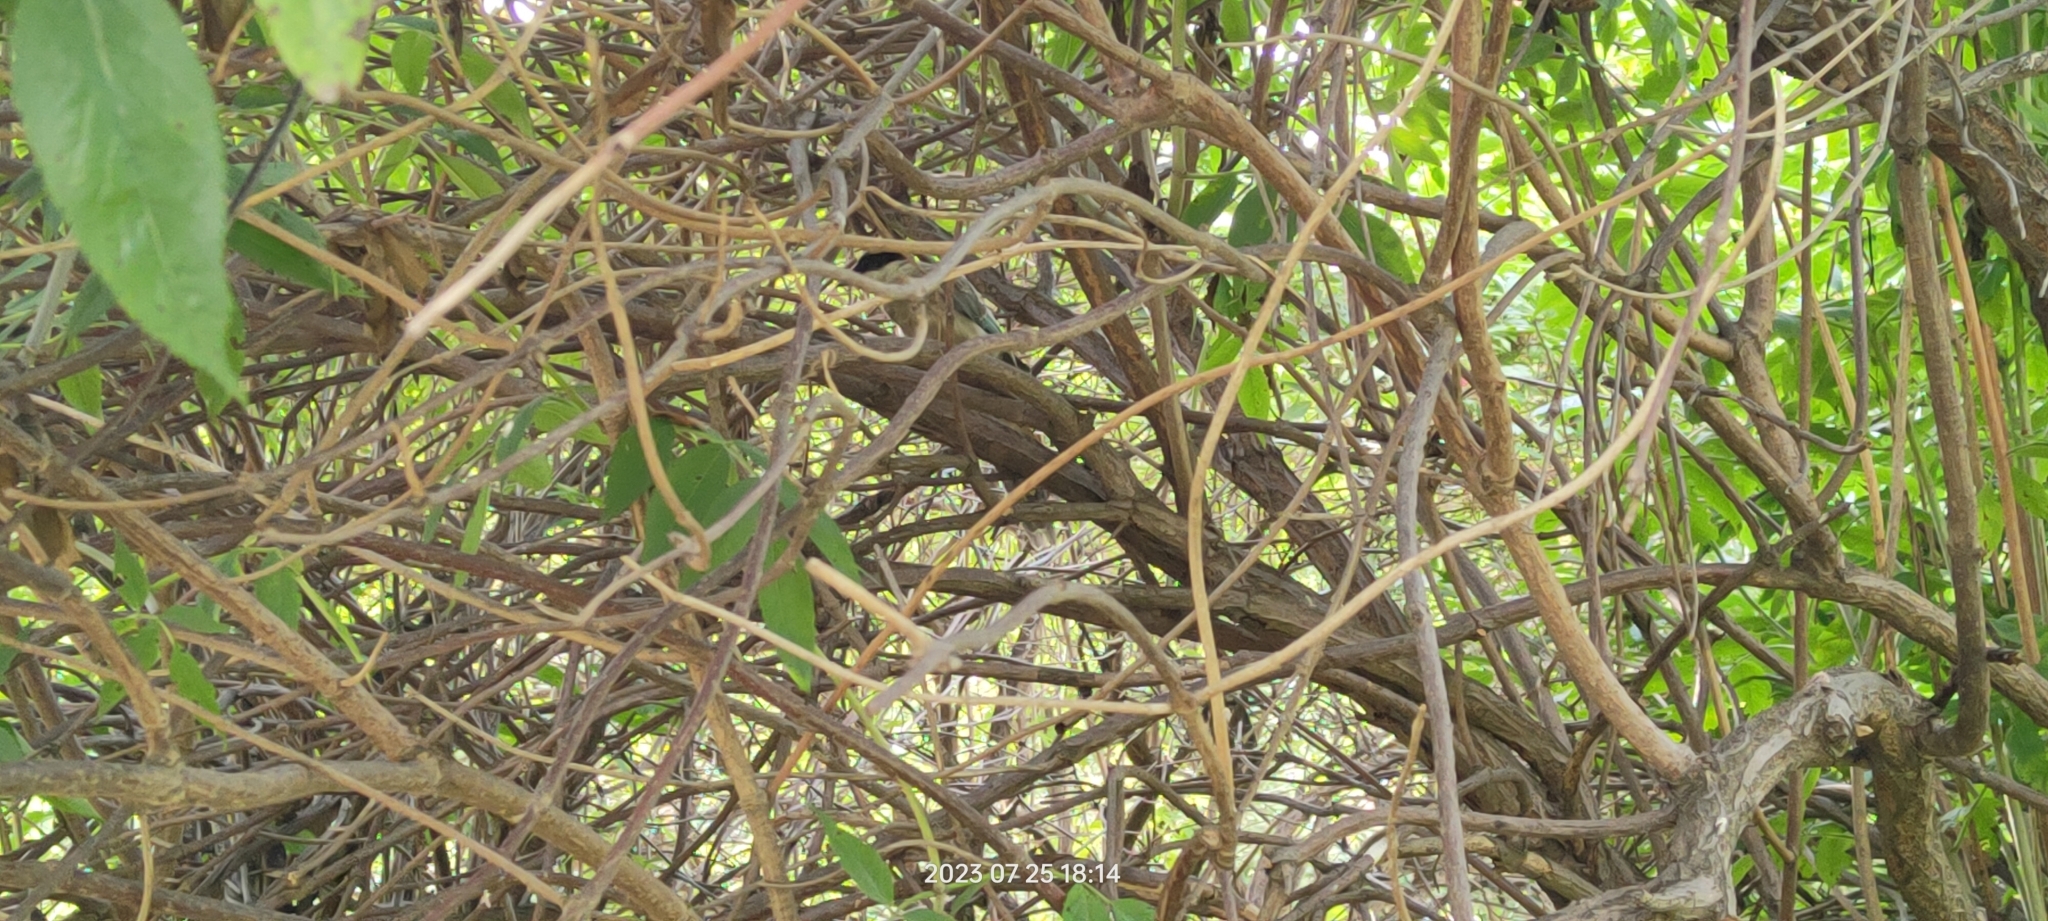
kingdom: Animalia
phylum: Chordata
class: Aves
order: Passeriformes
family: Corvidae
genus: Cyanopica
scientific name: Cyanopica cyanus
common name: Azure-winged magpie
